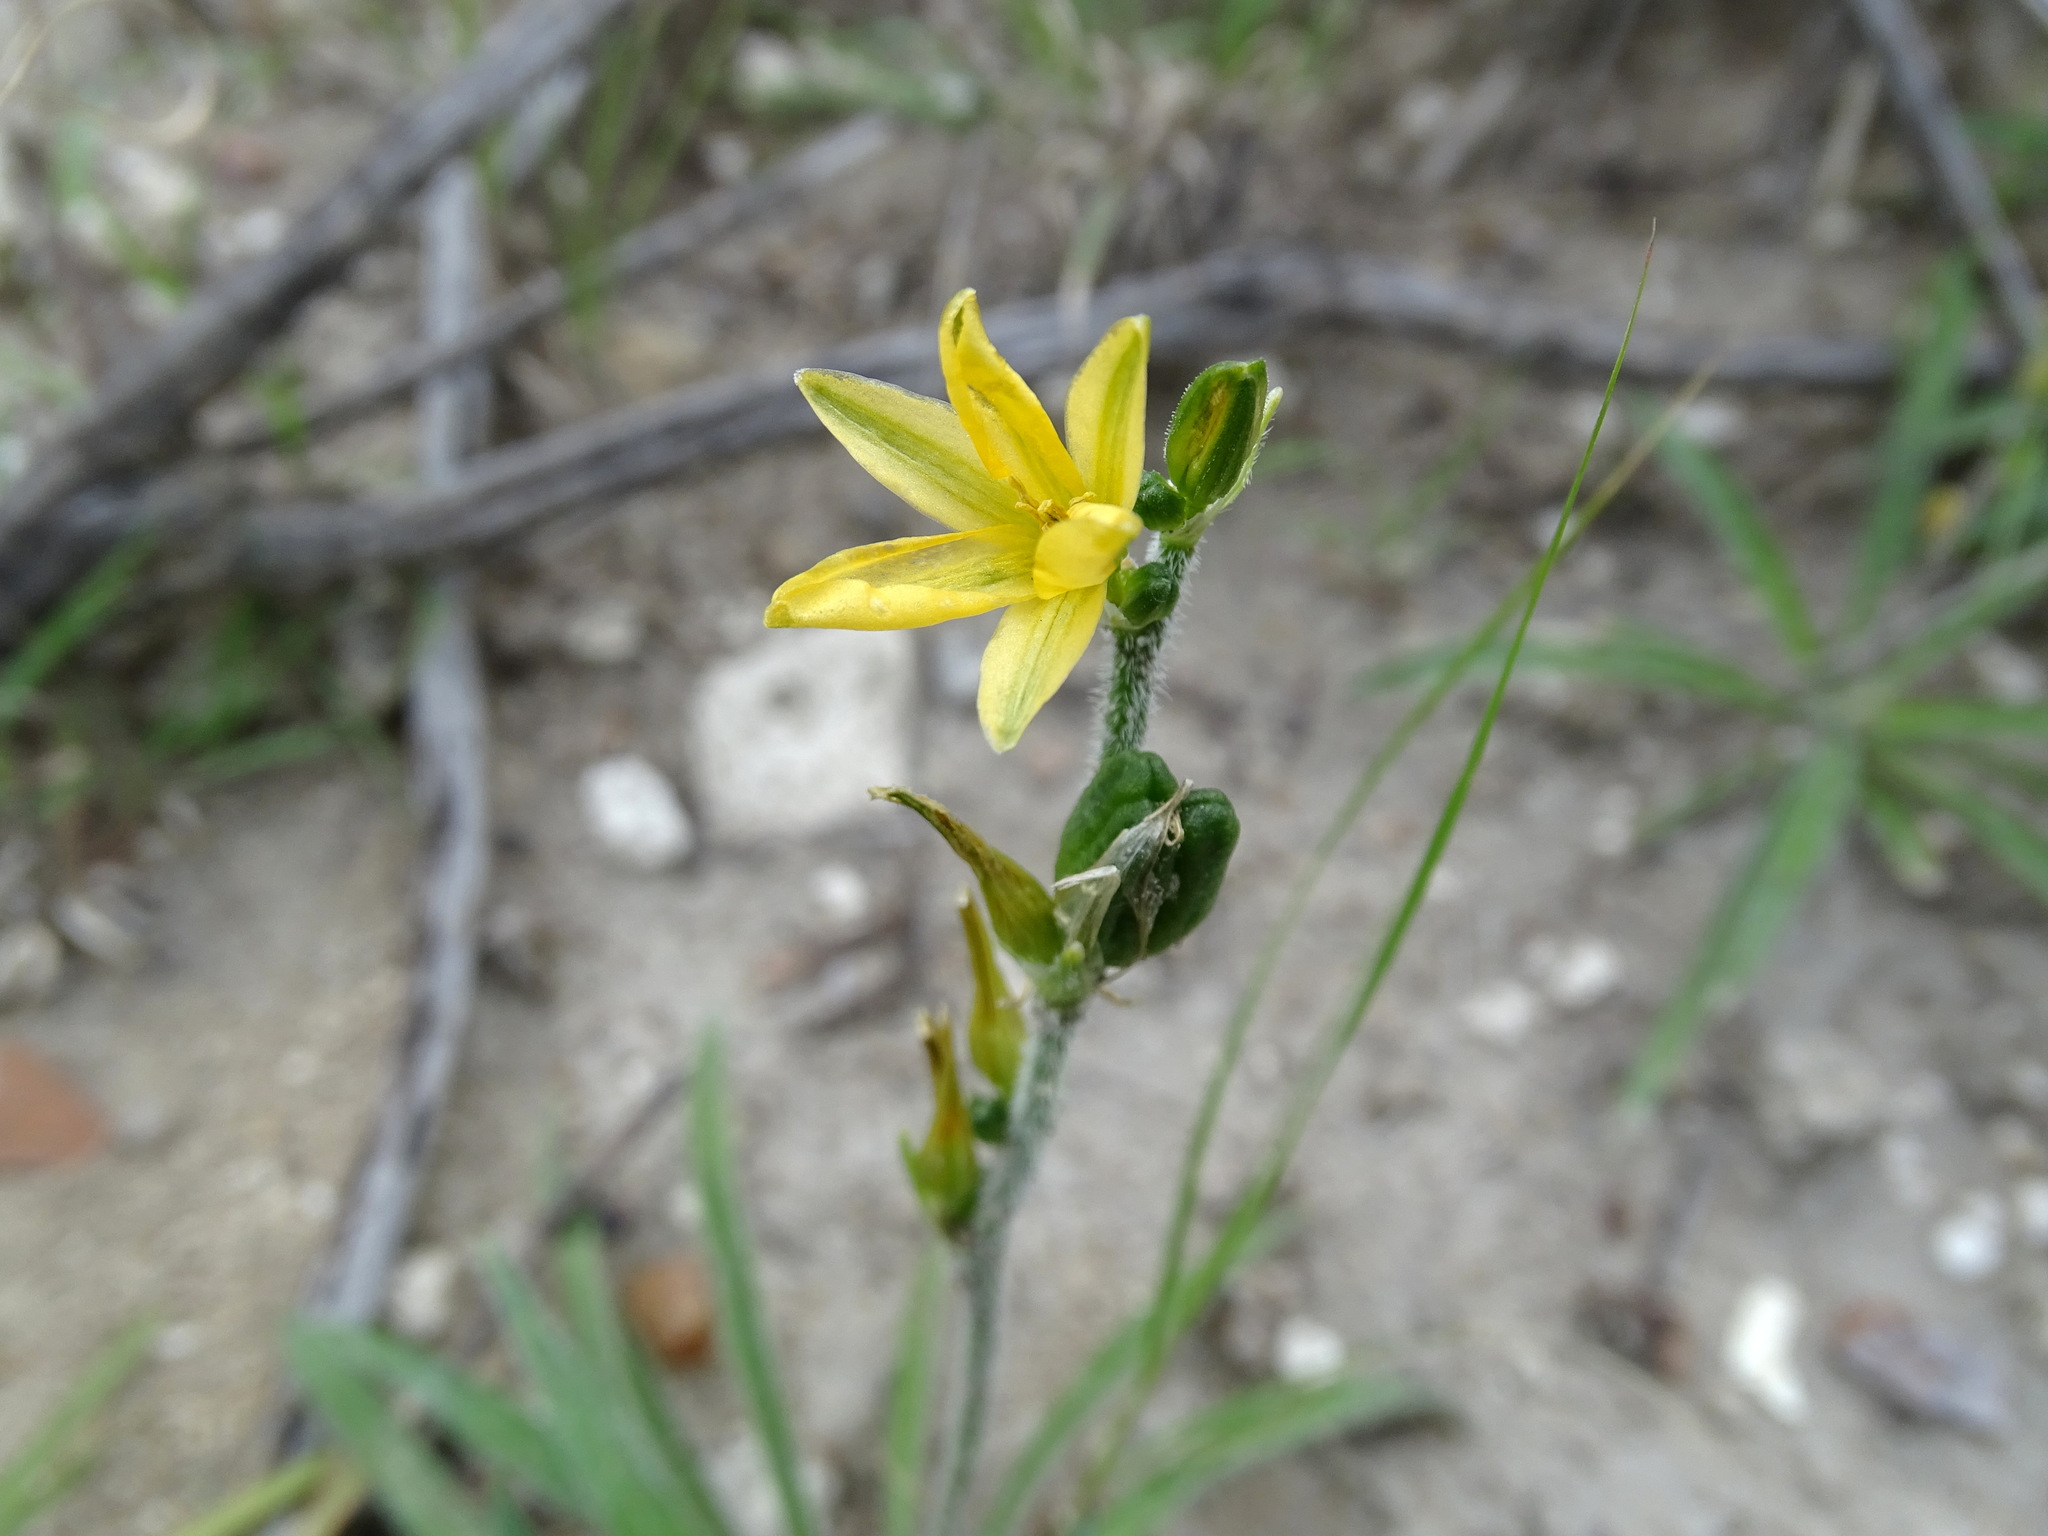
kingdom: Plantae
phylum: Tracheophyta
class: Liliopsida
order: Asparagales
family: Asparagaceae
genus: Echeandia
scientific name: Echeandia vestita
